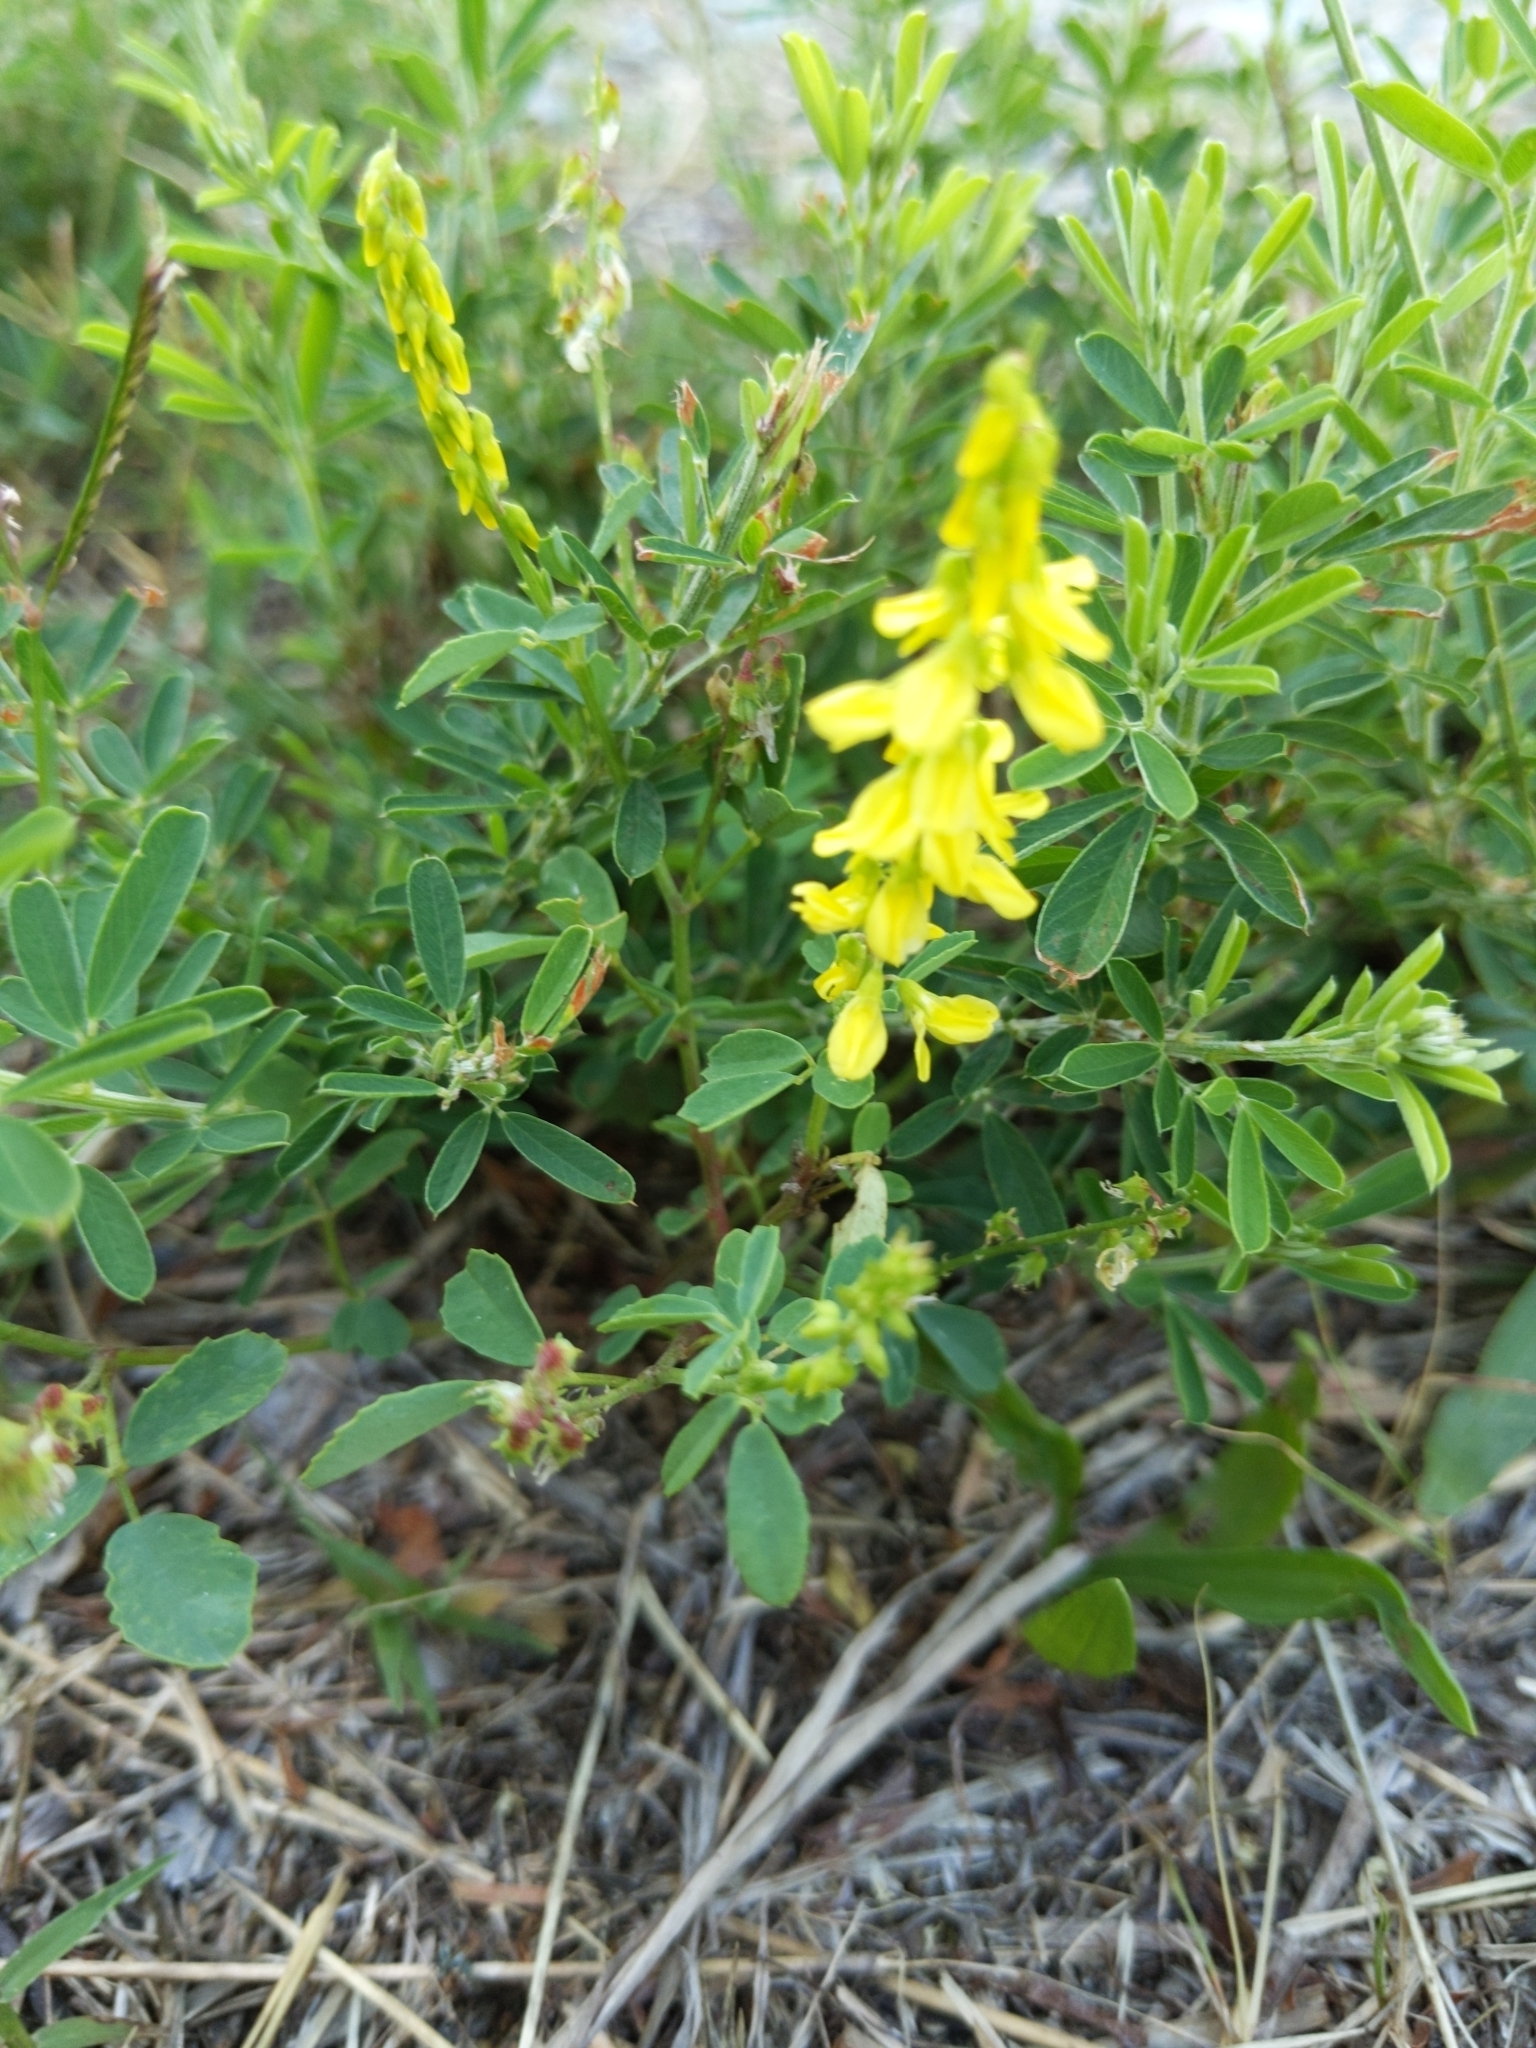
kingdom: Plantae
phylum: Tracheophyta
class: Magnoliopsida
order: Fabales
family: Fabaceae
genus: Melilotus
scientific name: Melilotus officinalis
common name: Sweetclover
